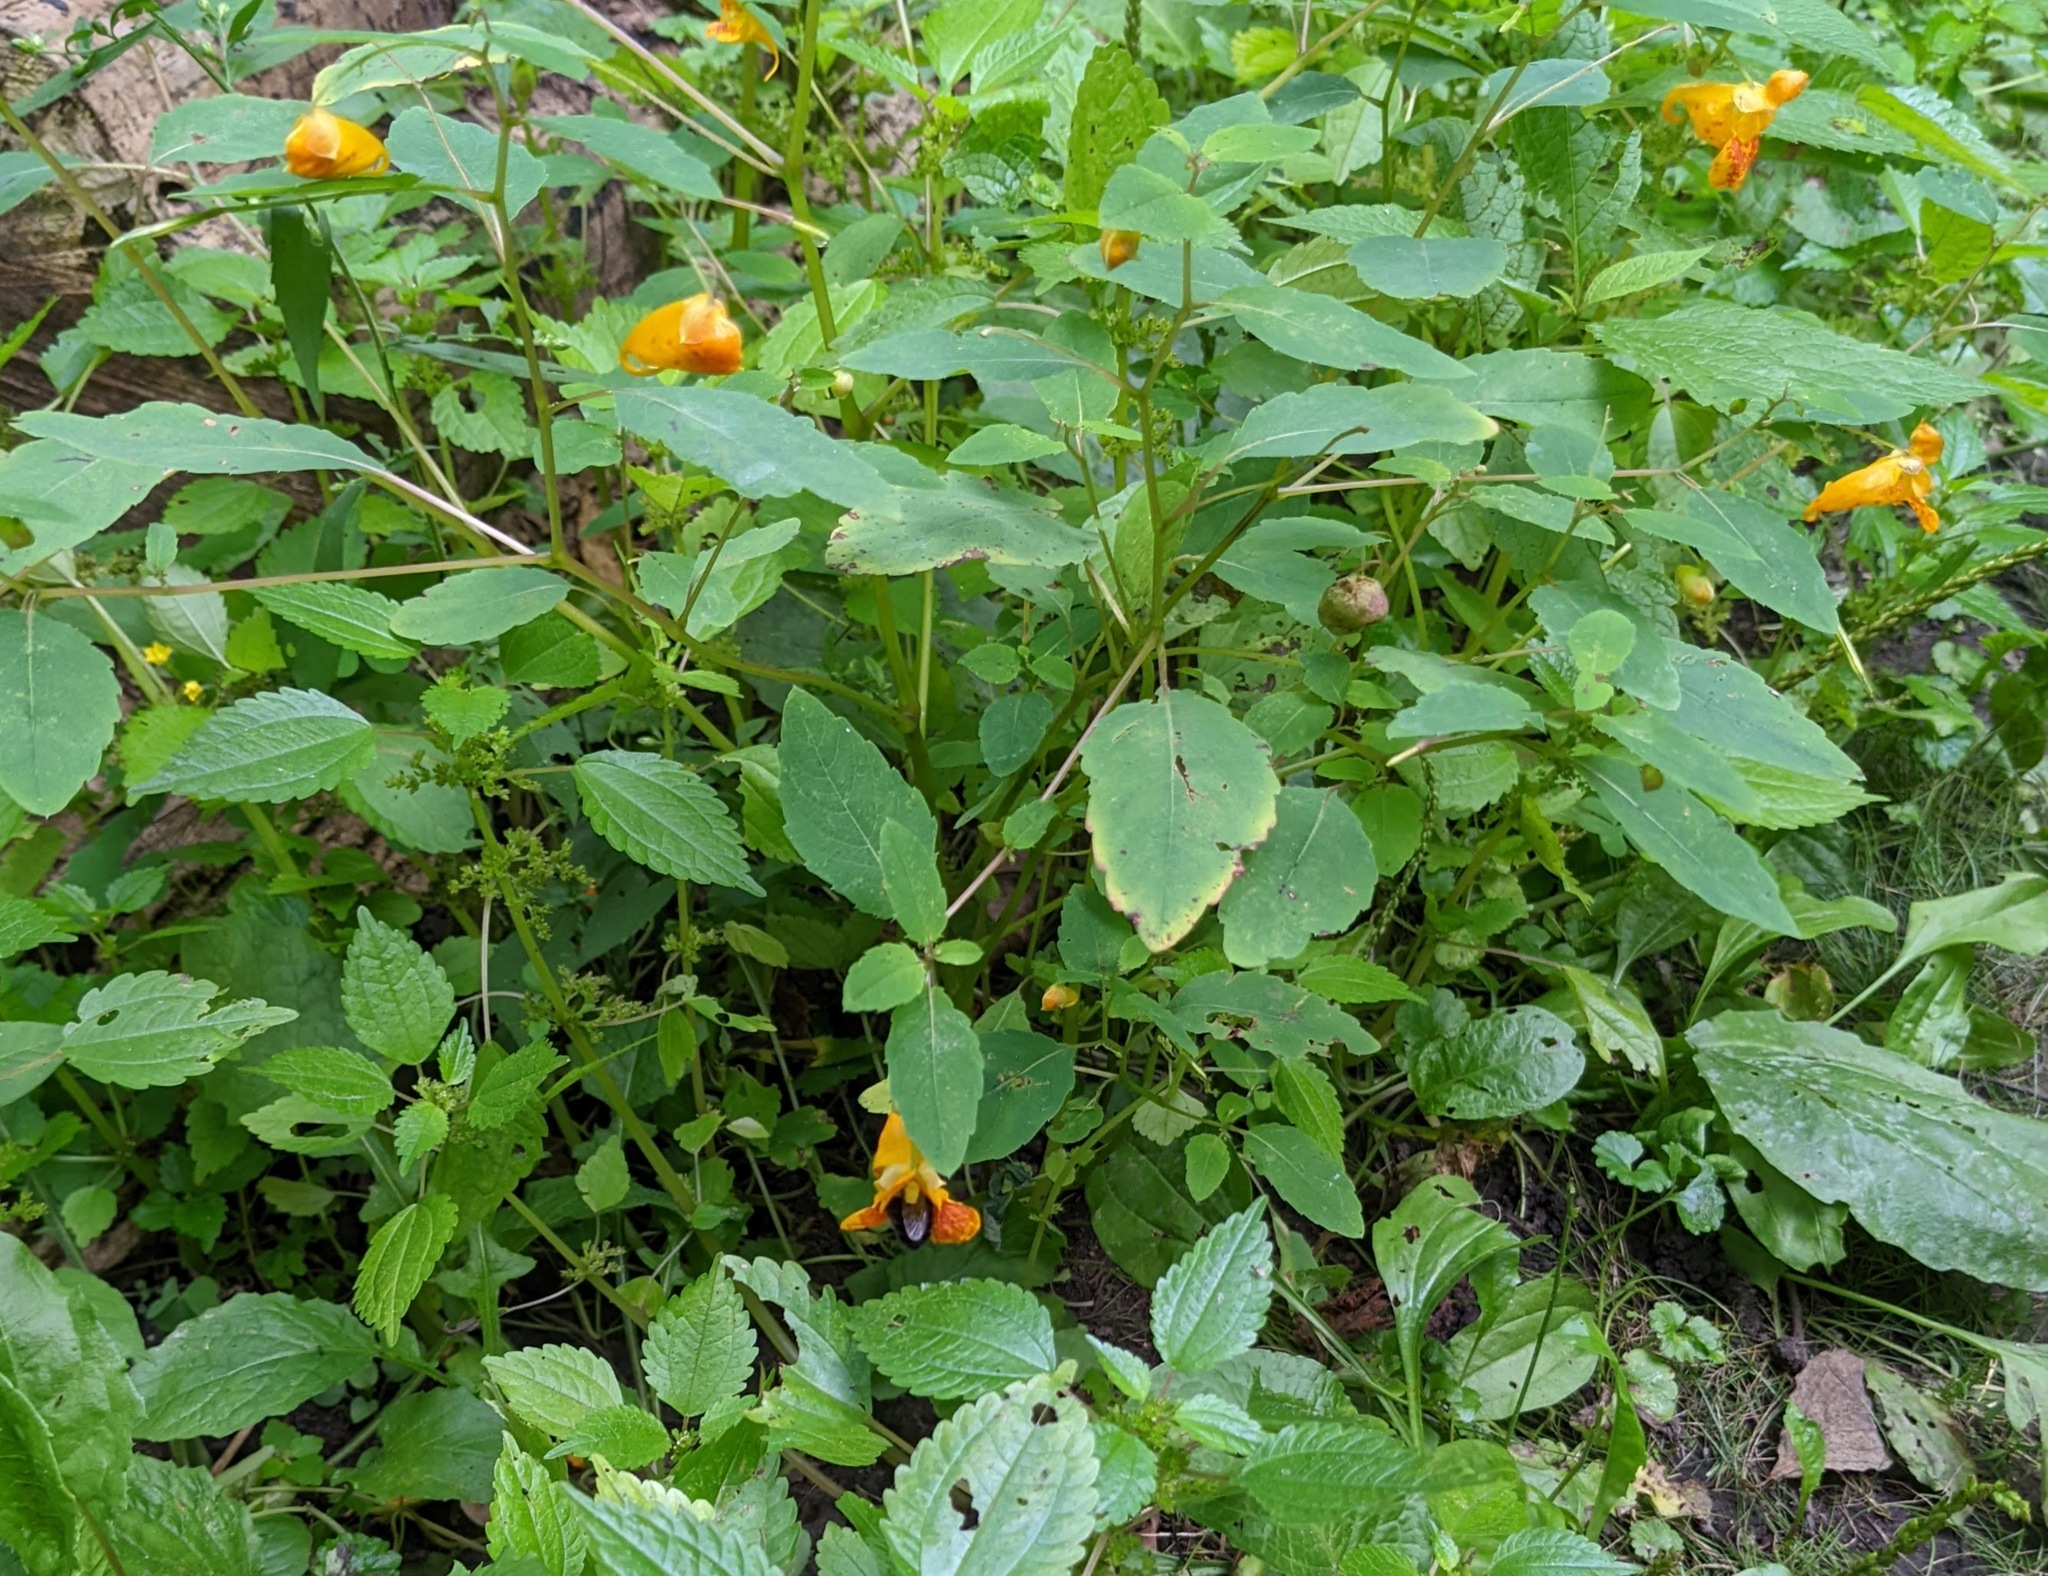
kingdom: Plantae
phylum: Tracheophyta
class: Magnoliopsida
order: Ericales
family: Balsaminaceae
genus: Impatiens
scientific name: Impatiens capensis
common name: Orange balsam
